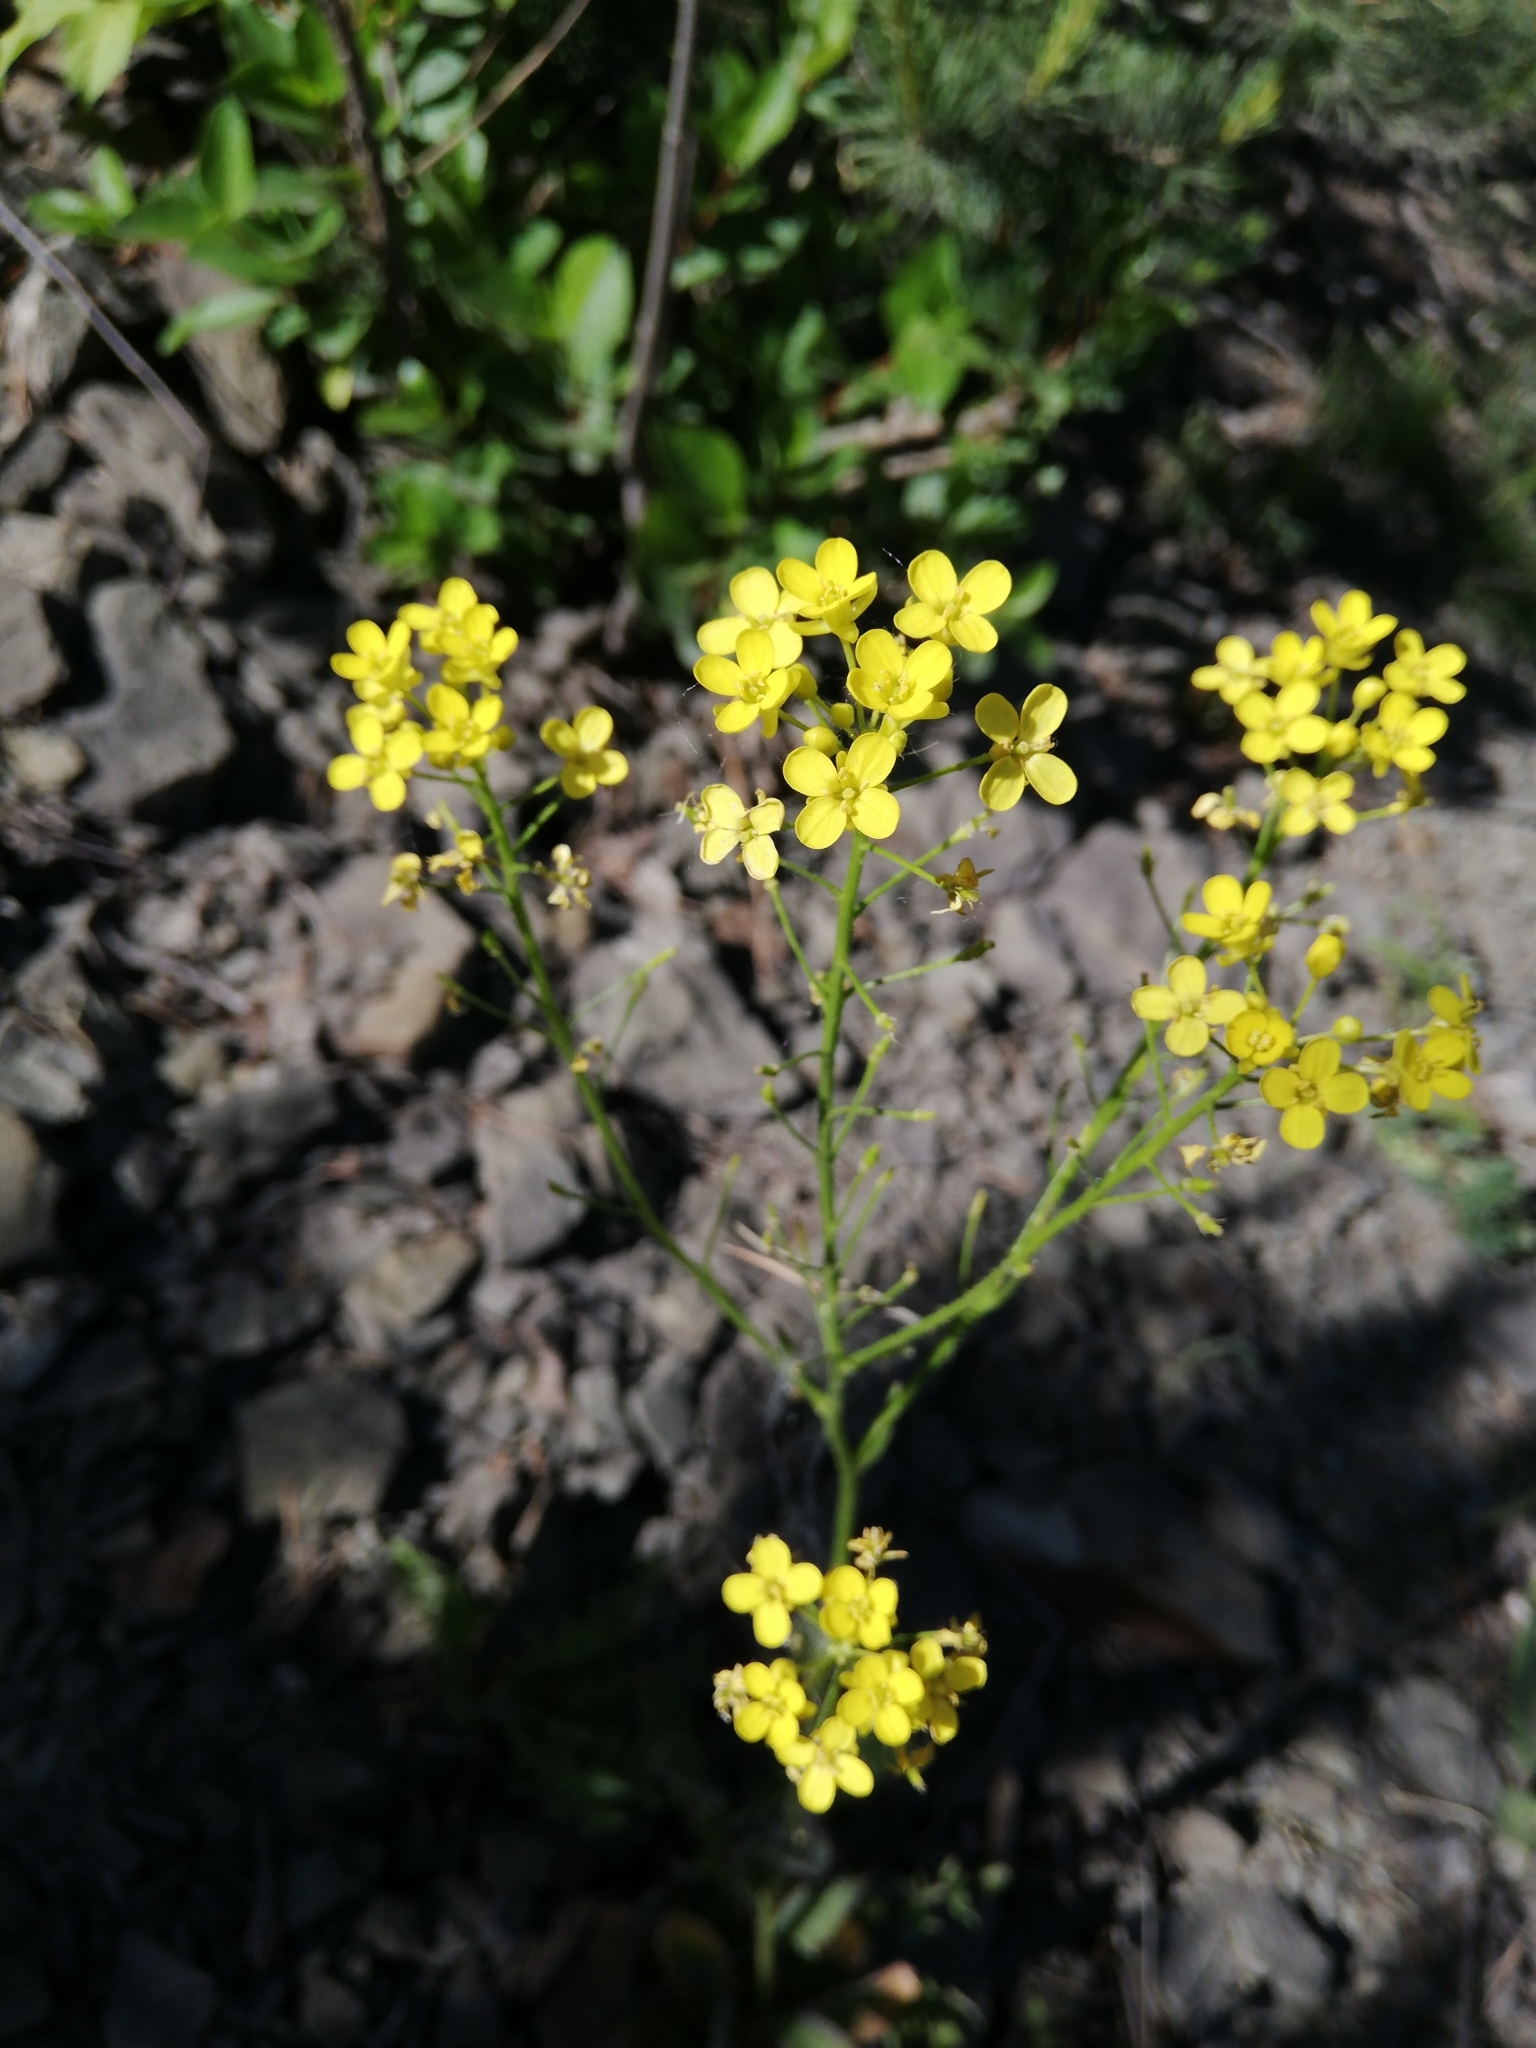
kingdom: Plantae
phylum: Tracheophyta
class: Magnoliopsida
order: Brassicales
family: Brassicaceae
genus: Bunias
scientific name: Bunias orientalis
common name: Warty-cabbage
